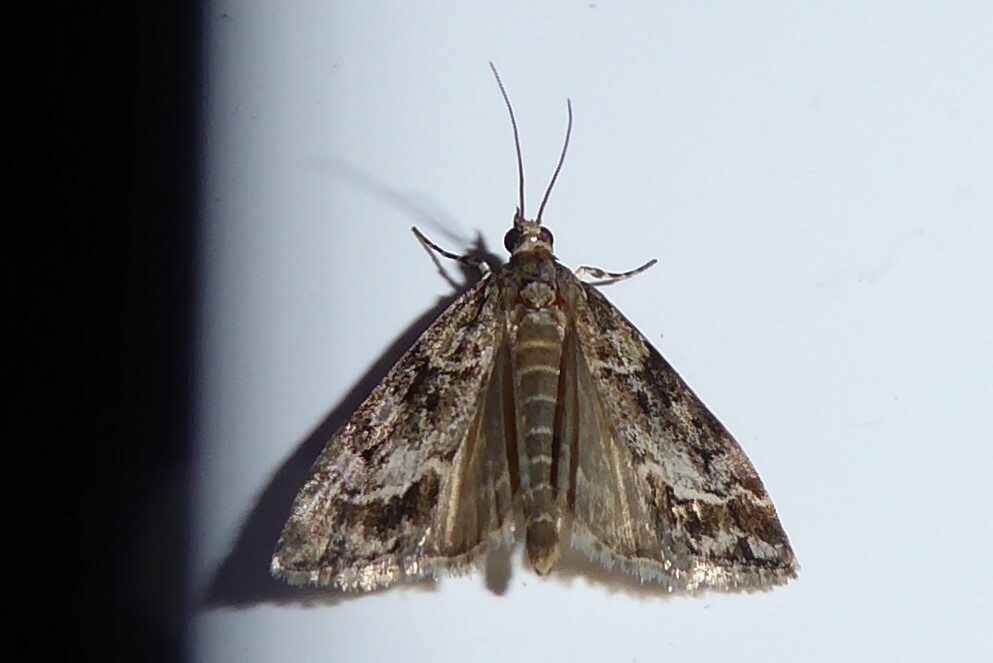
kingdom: Animalia
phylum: Arthropoda
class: Insecta
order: Lepidoptera
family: Crambidae
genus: Eudonia
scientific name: Eudonia legnota
